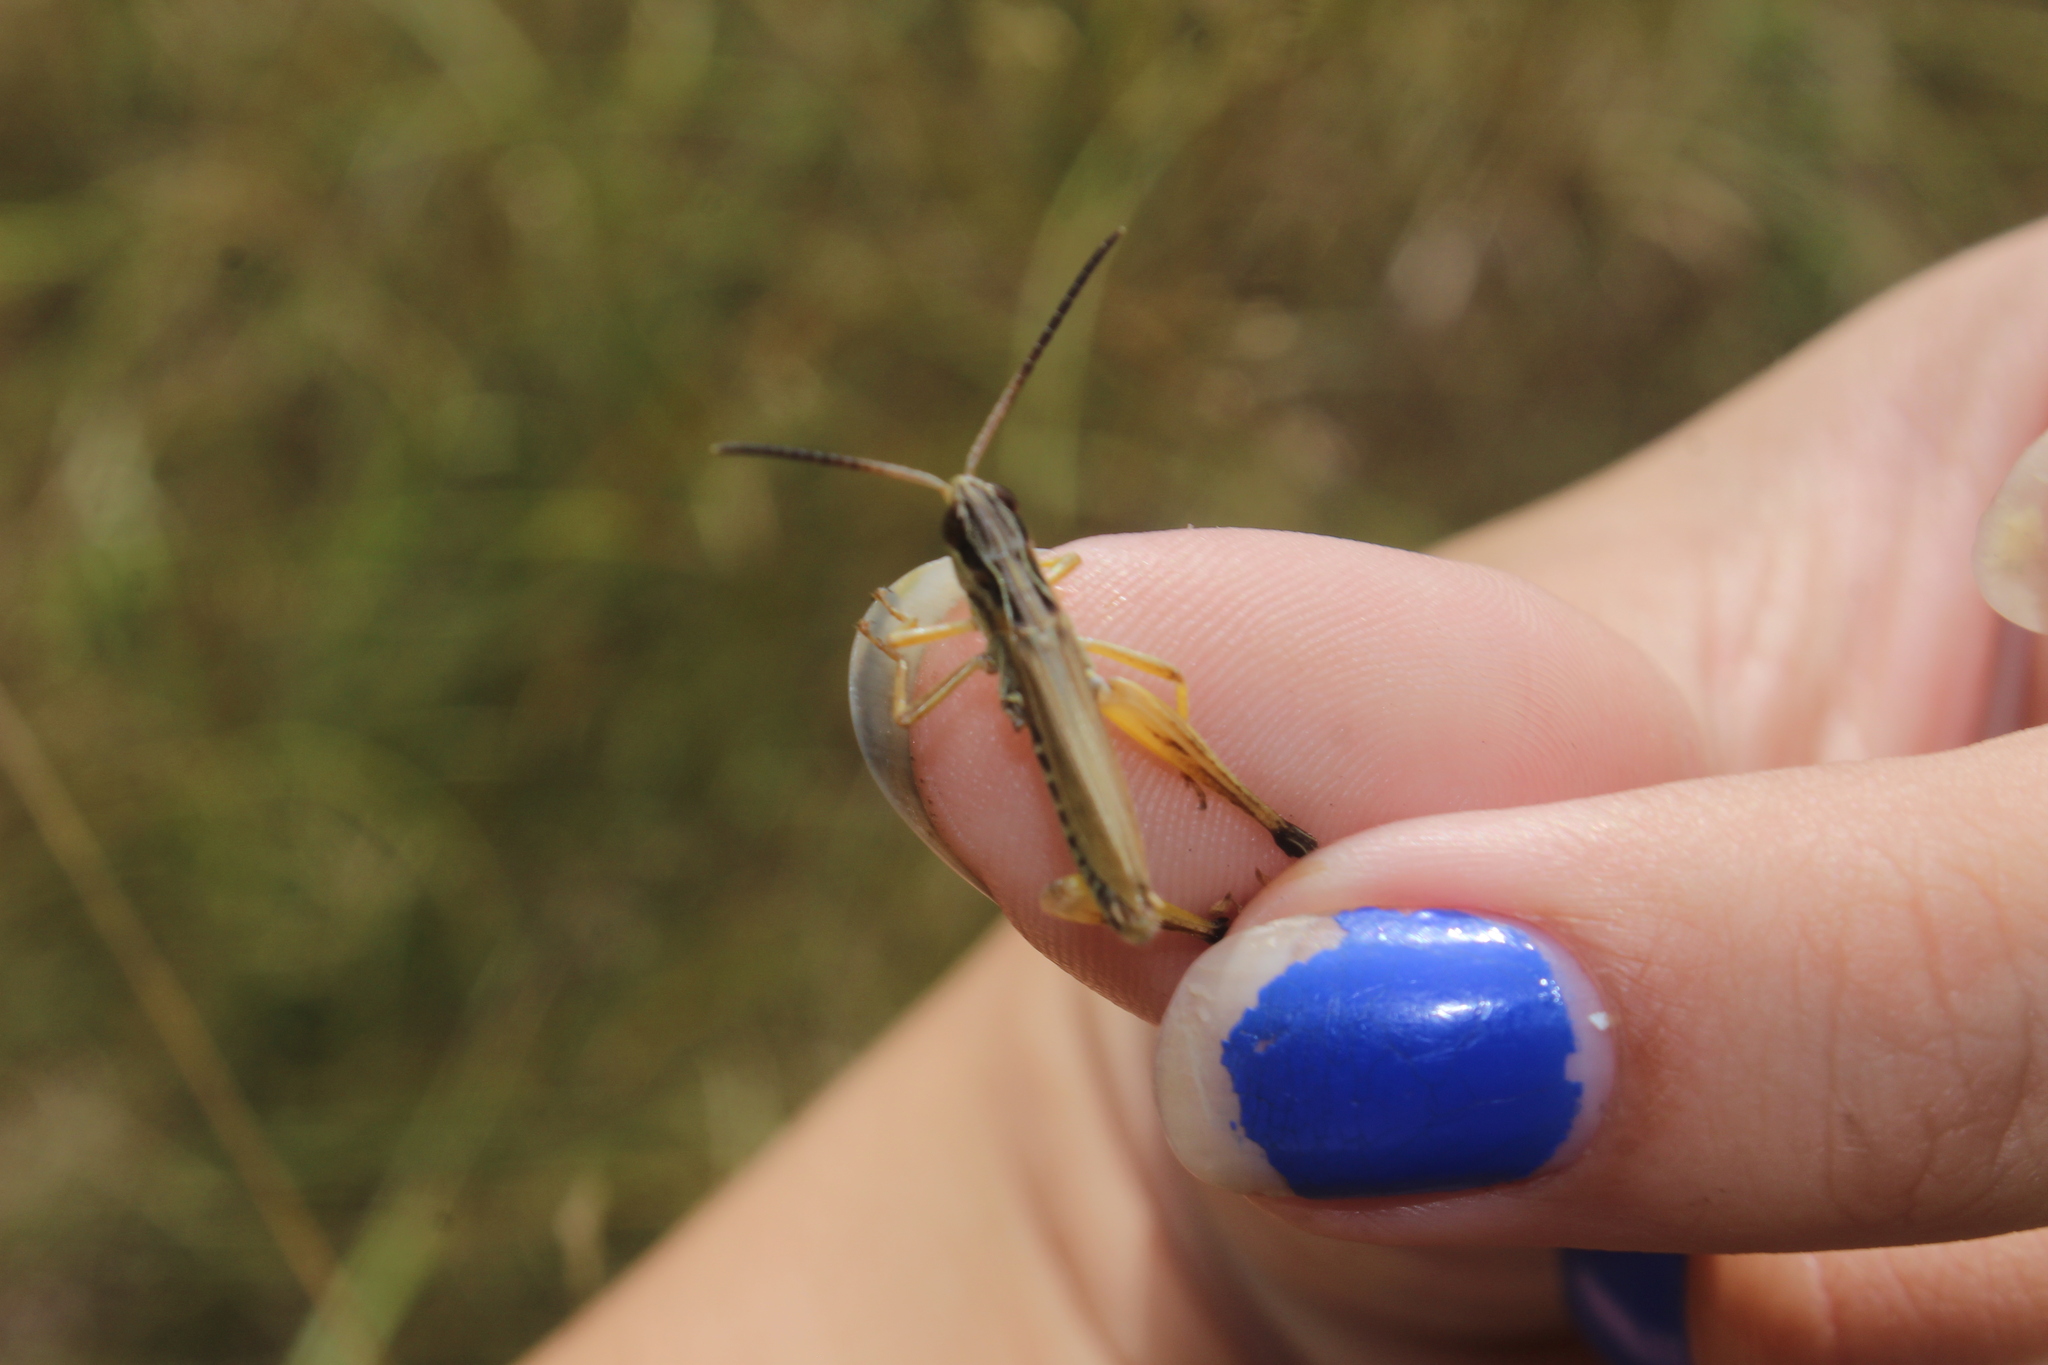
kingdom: Animalia
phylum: Arthropoda
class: Insecta
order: Orthoptera
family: Acrididae
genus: Pseudochorthippus
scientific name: Pseudochorthippus curtipennis
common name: Marsh meadow grasshopper
